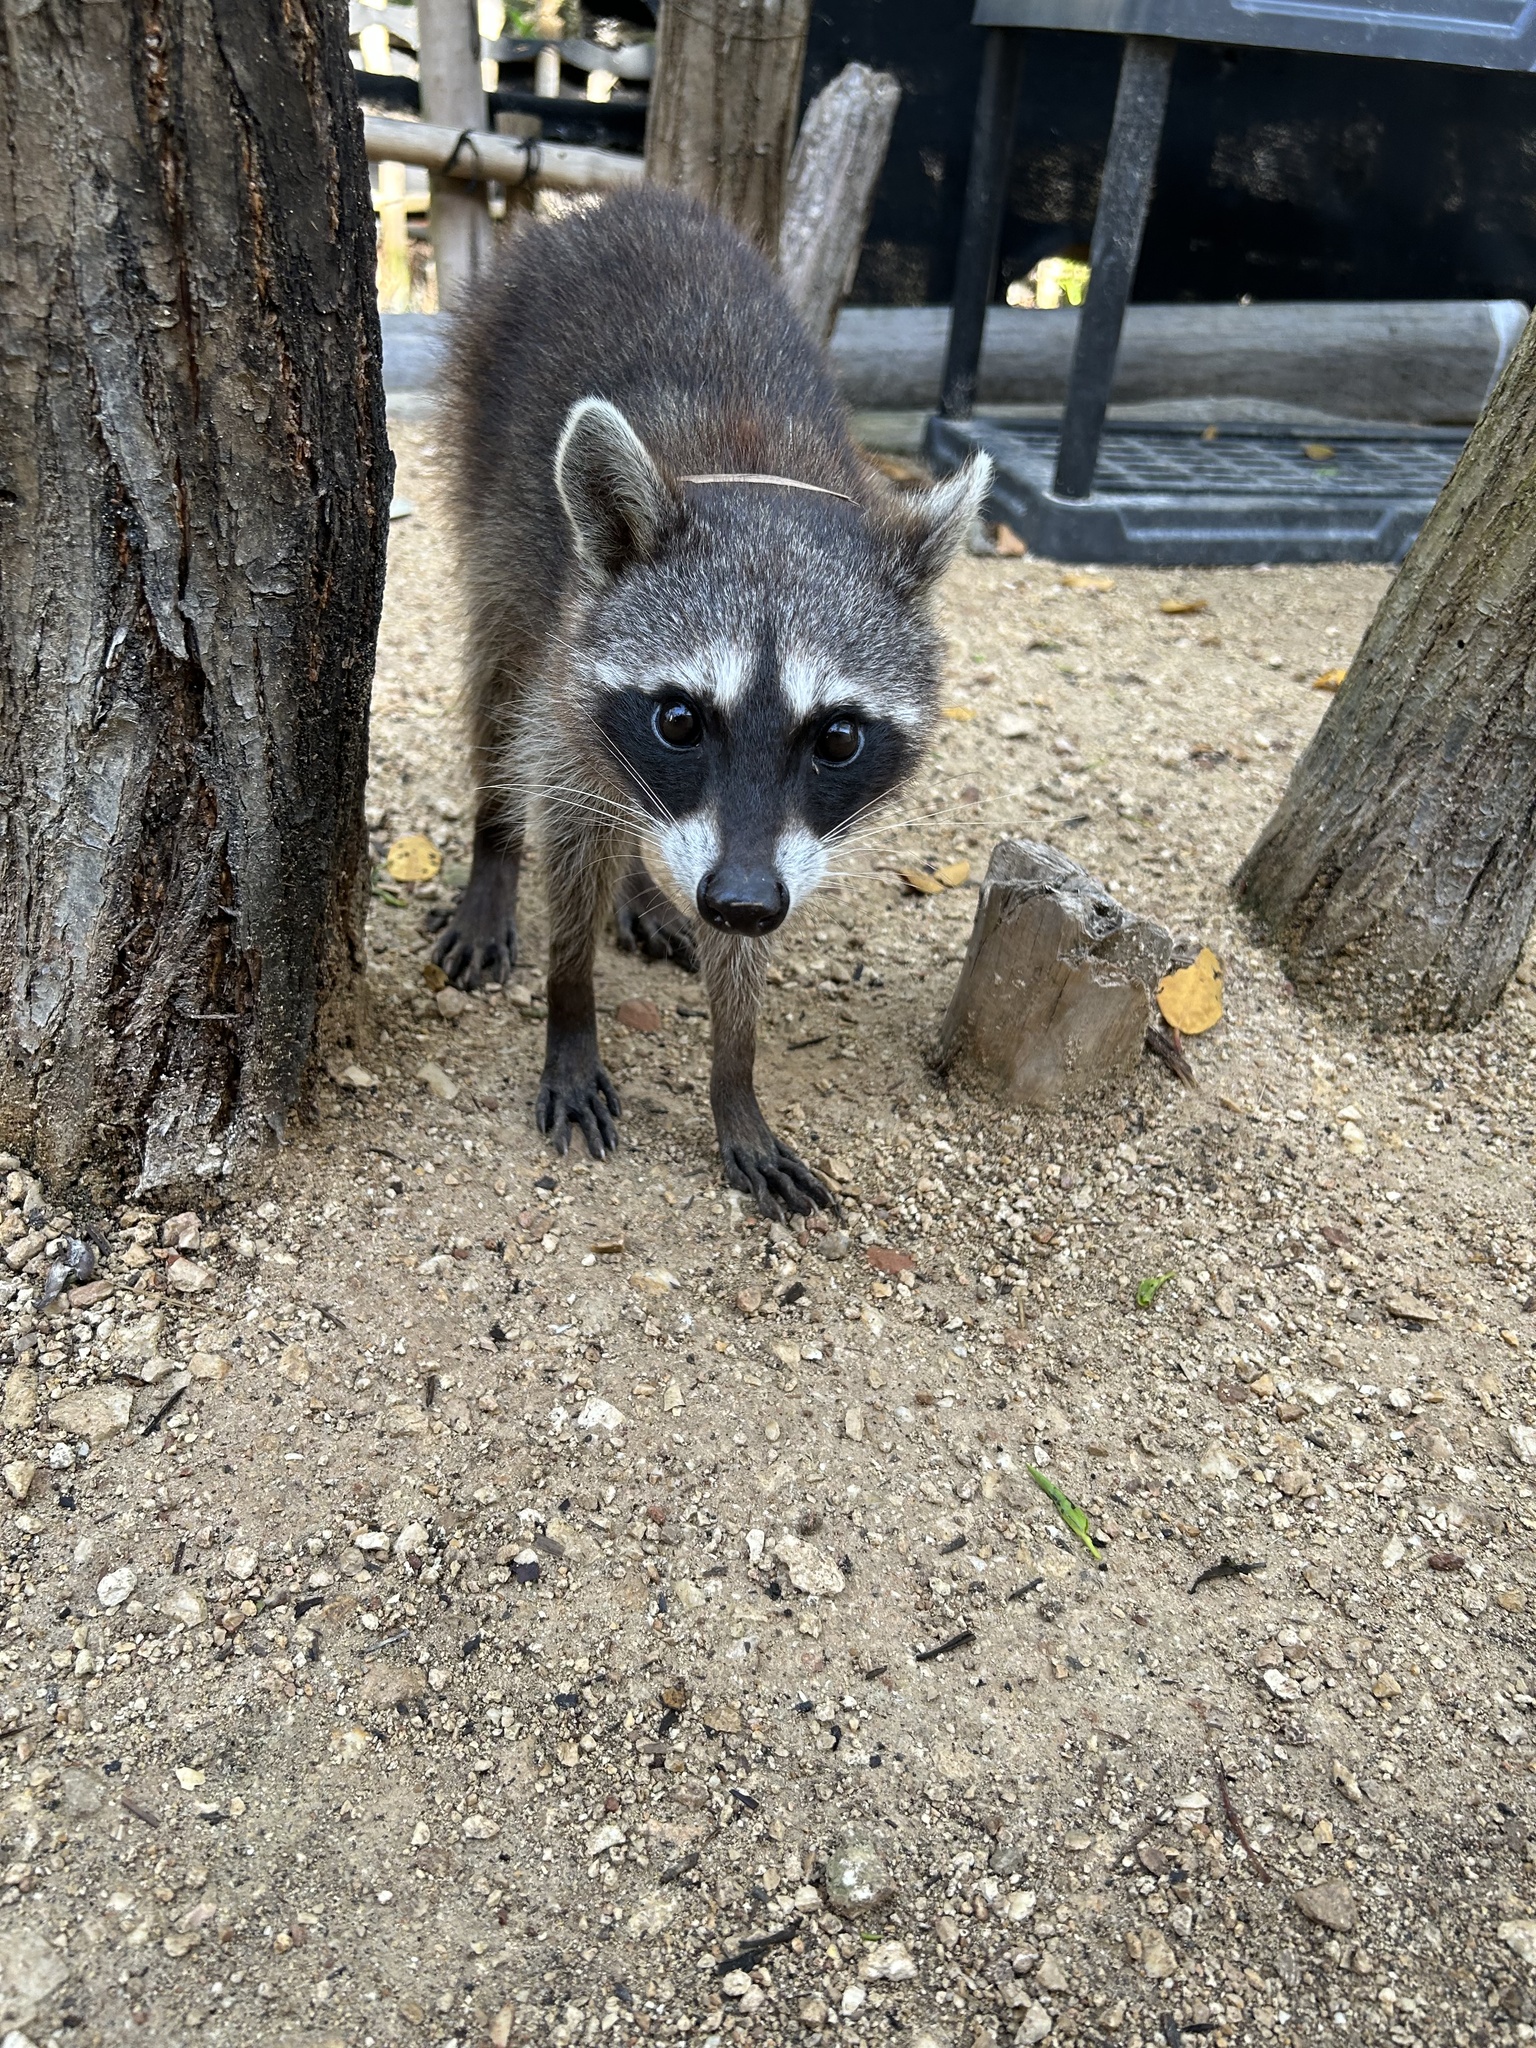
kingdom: Animalia
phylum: Chordata
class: Mammalia
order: Carnivora
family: Procyonidae
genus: Procyon
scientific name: Procyon lotor
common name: Raccoon
